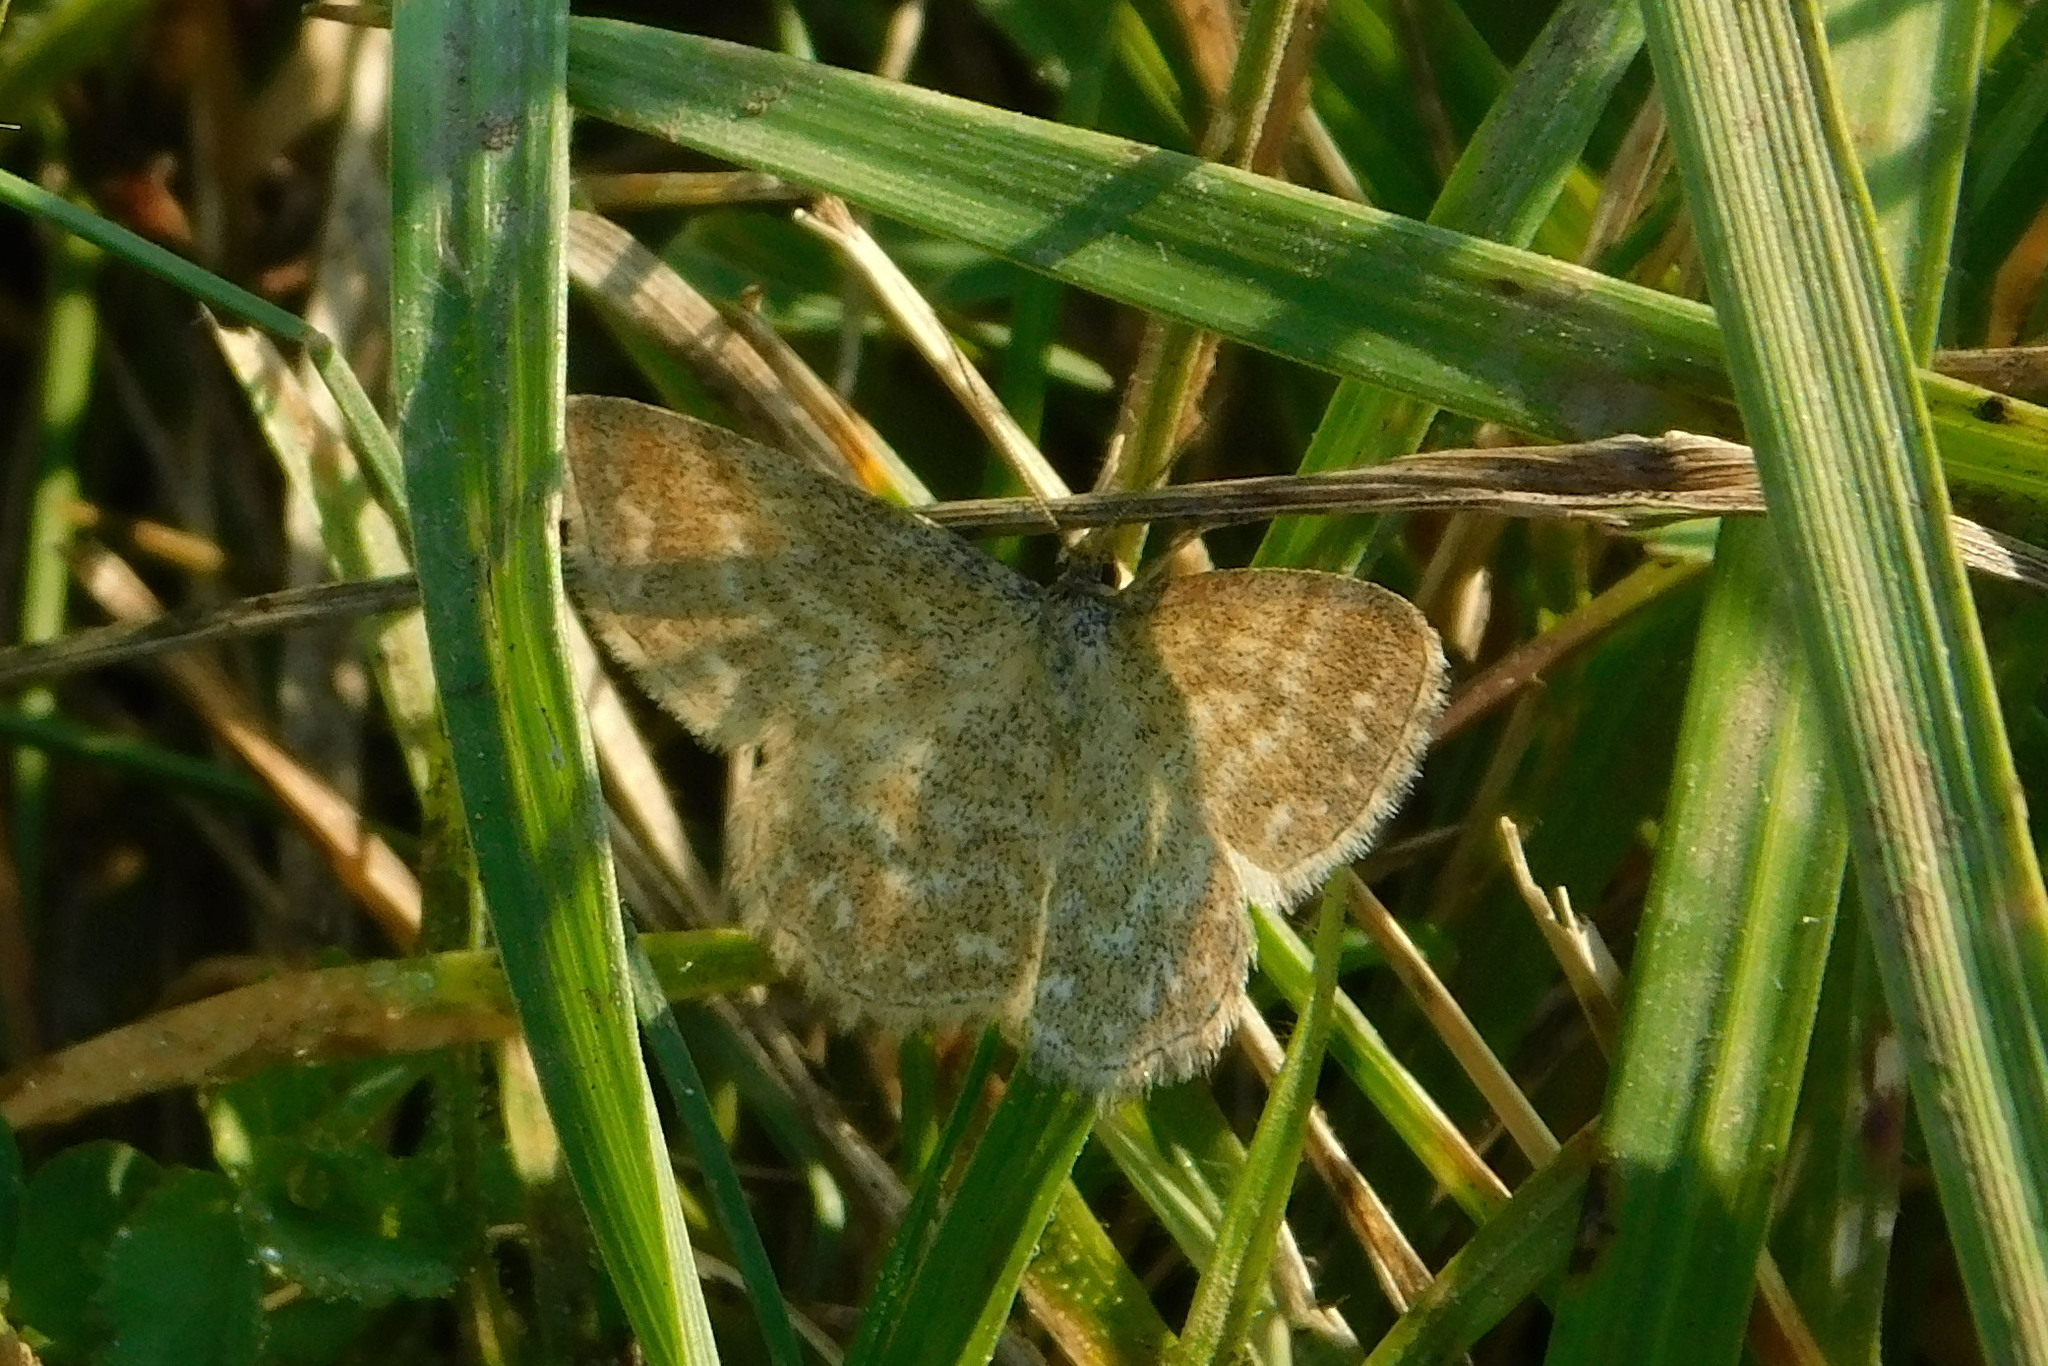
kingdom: Animalia
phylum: Arthropoda
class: Insecta
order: Lepidoptera
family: Geometridae
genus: Scopula
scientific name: Scopula immorata
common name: Lewes wave
